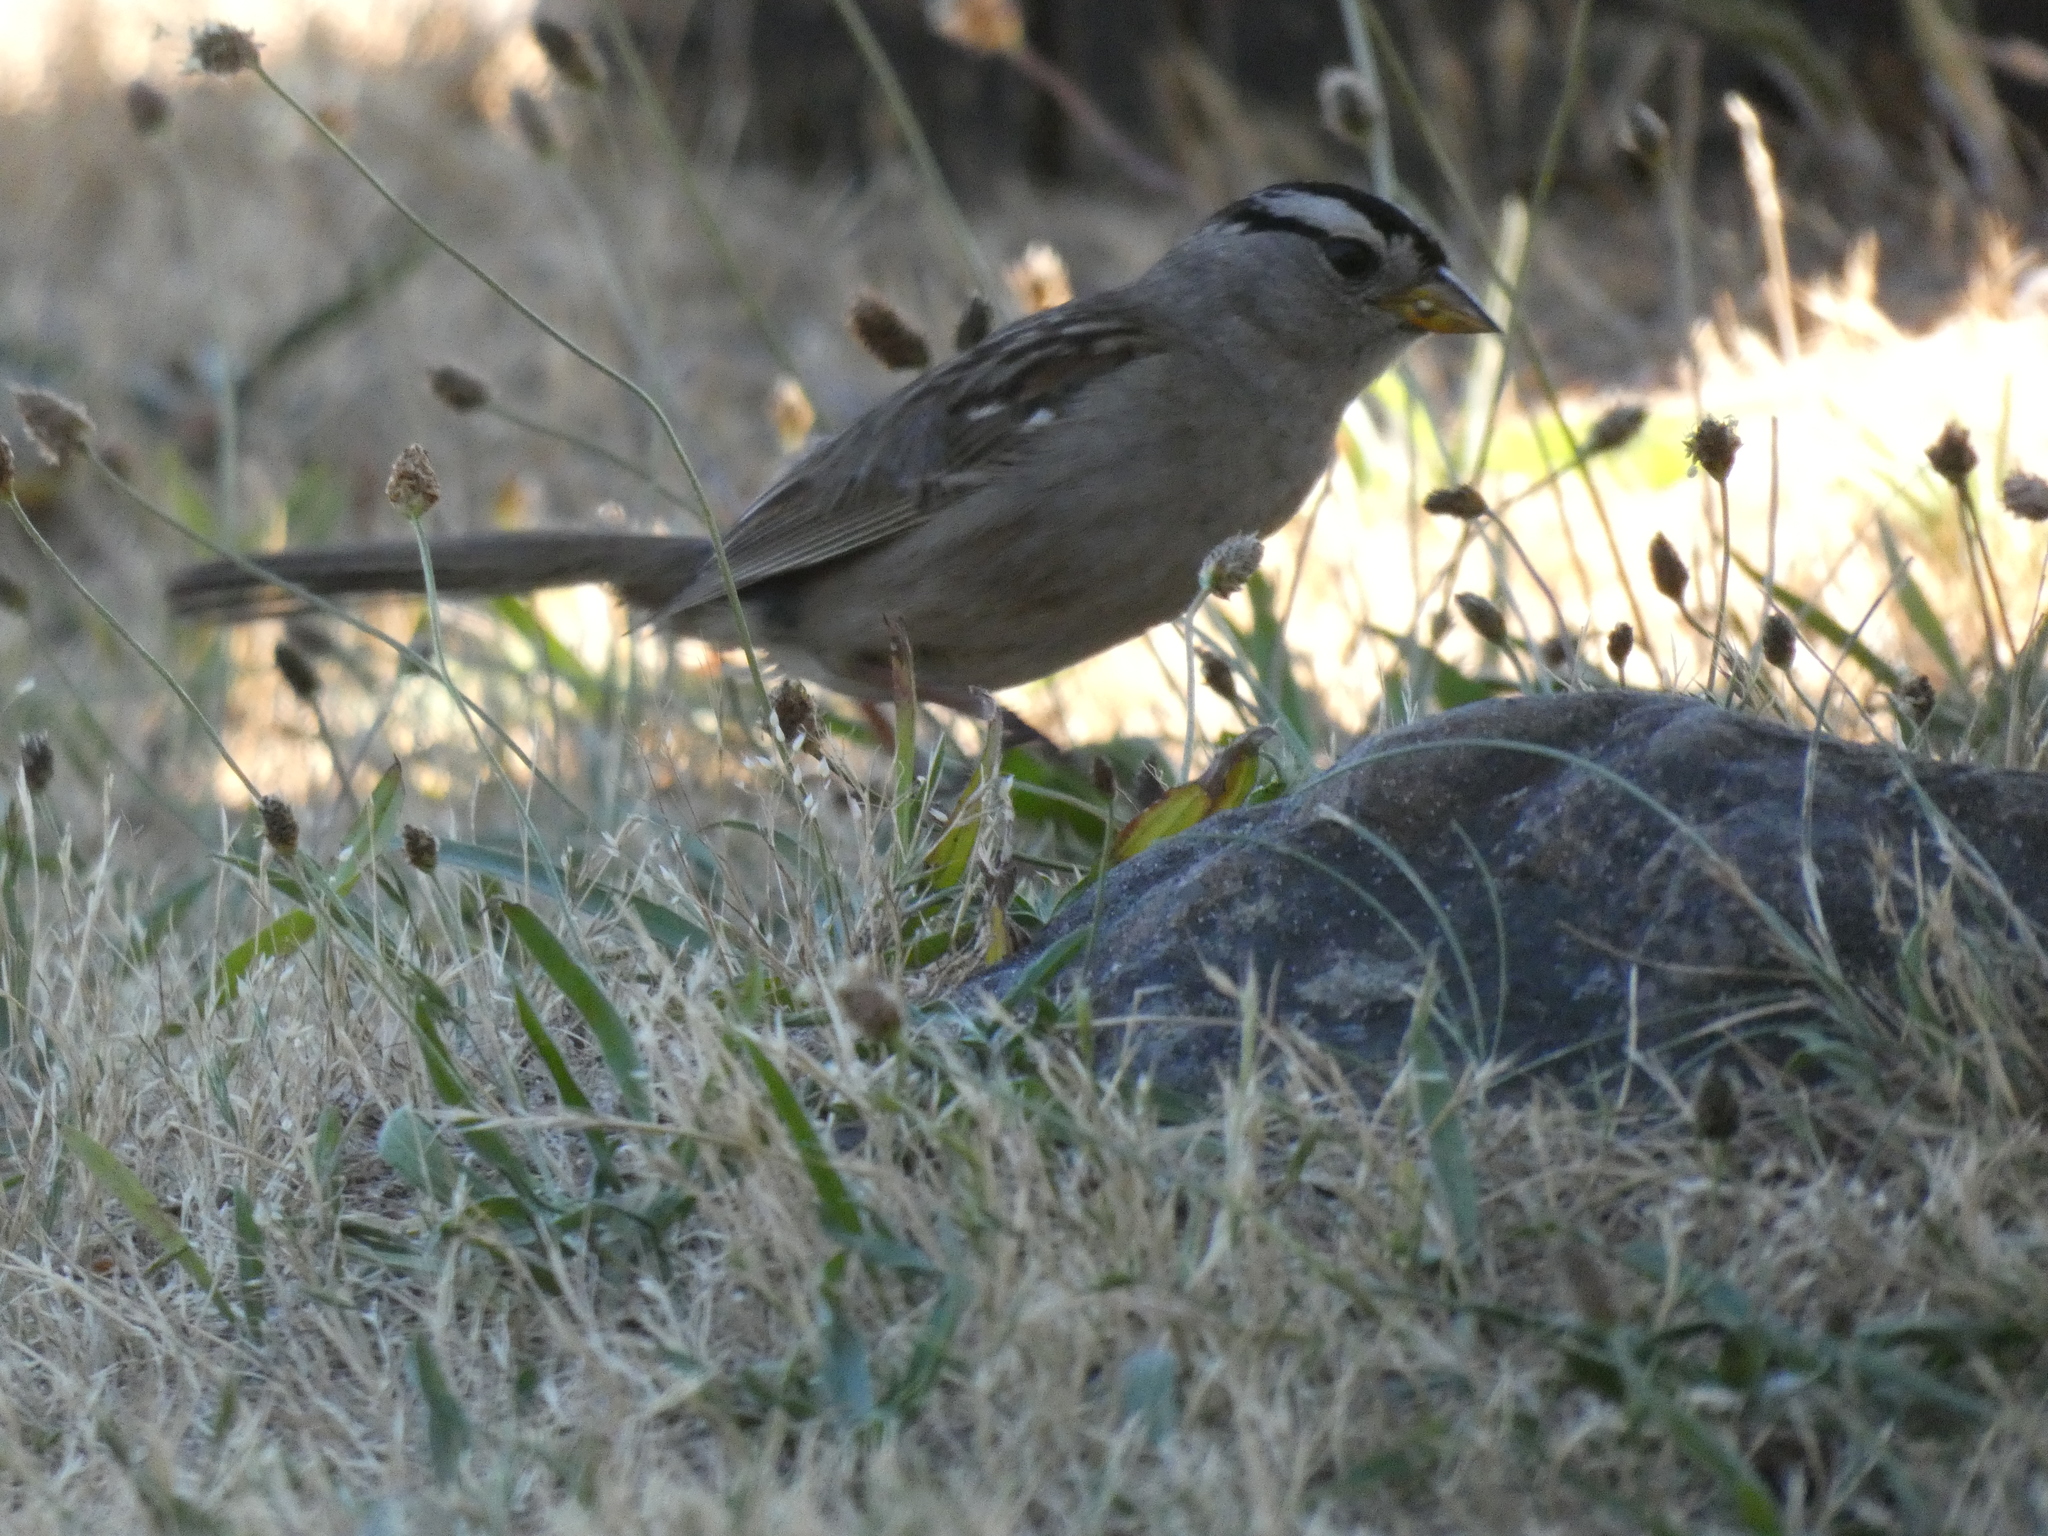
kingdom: Animalia
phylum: Chordata
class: Aves
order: Passeriformes
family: Passerellidae
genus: Zonotrichia
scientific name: Zonotrichia leucophrys
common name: White-crowned sparrow
